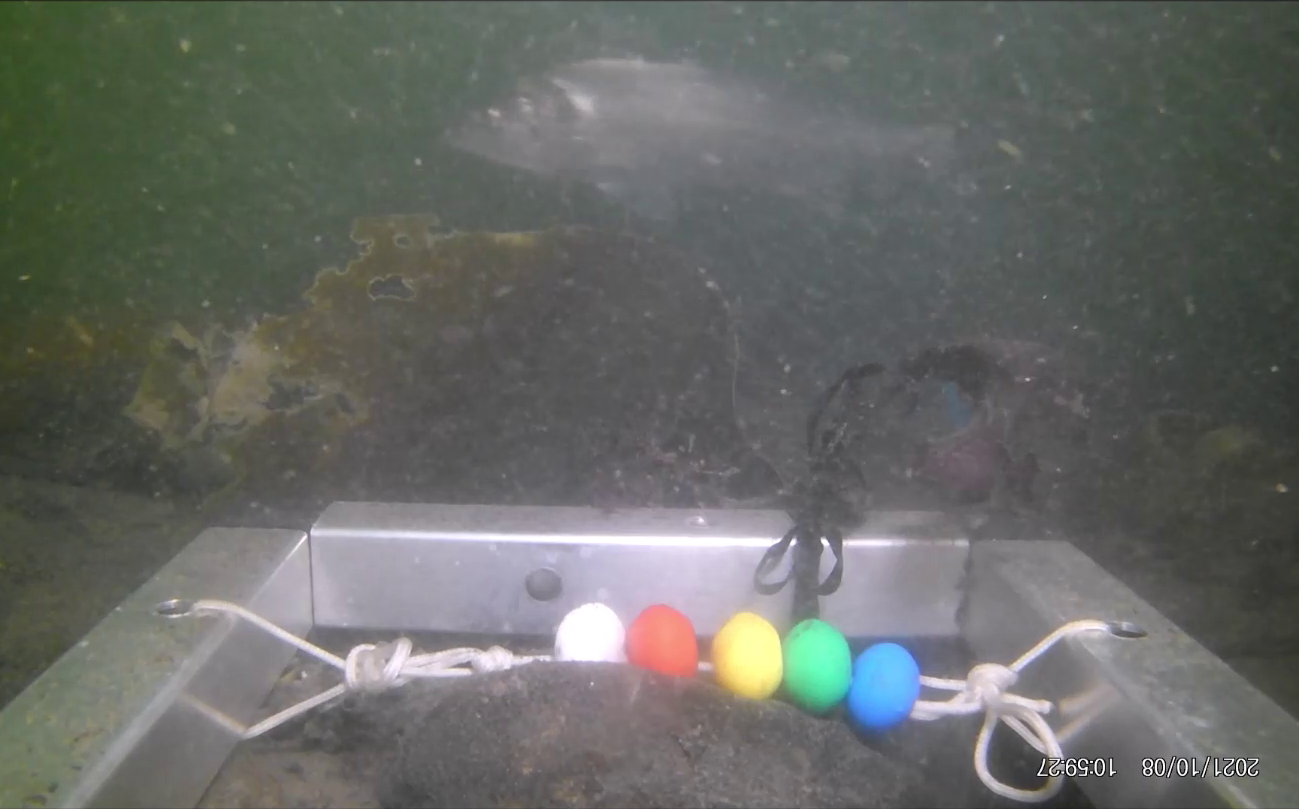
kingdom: Animalia
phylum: Chordata
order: Perciformes
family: Moronidae
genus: Dicentrarchus
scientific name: Dicentrarchus labrax
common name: European seabass
